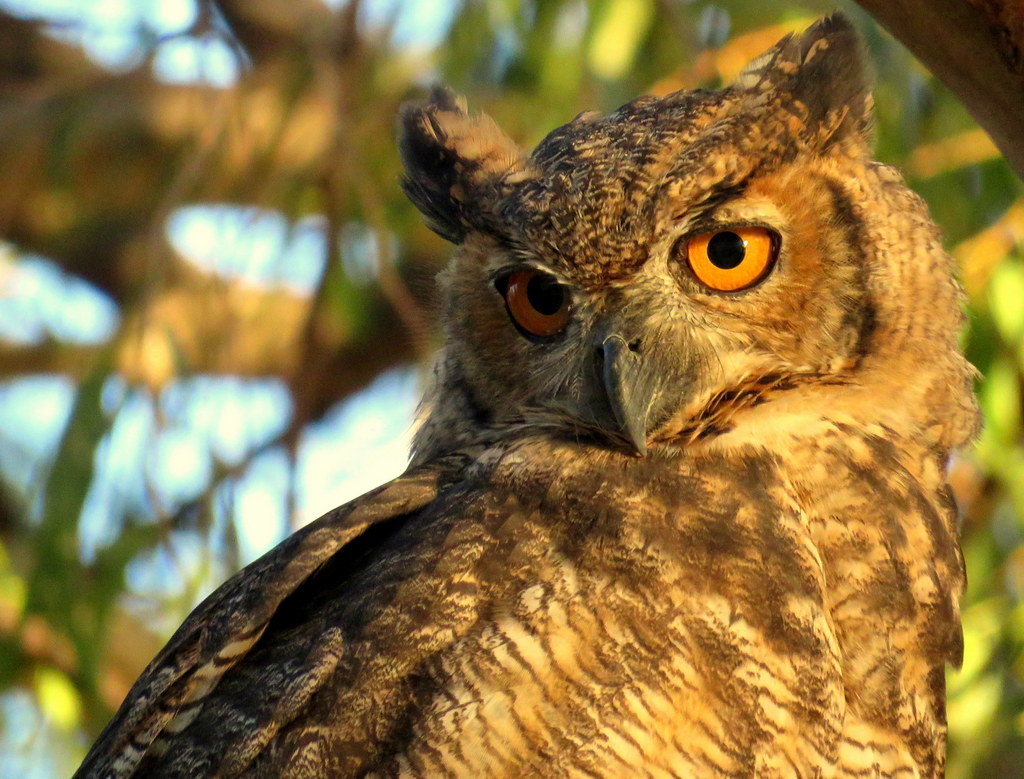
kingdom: Animalia
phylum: Chordata
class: Aves
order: Strigiformes
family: Strigidae
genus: Bubo
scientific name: Bubo virginianus
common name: Great horned owl
